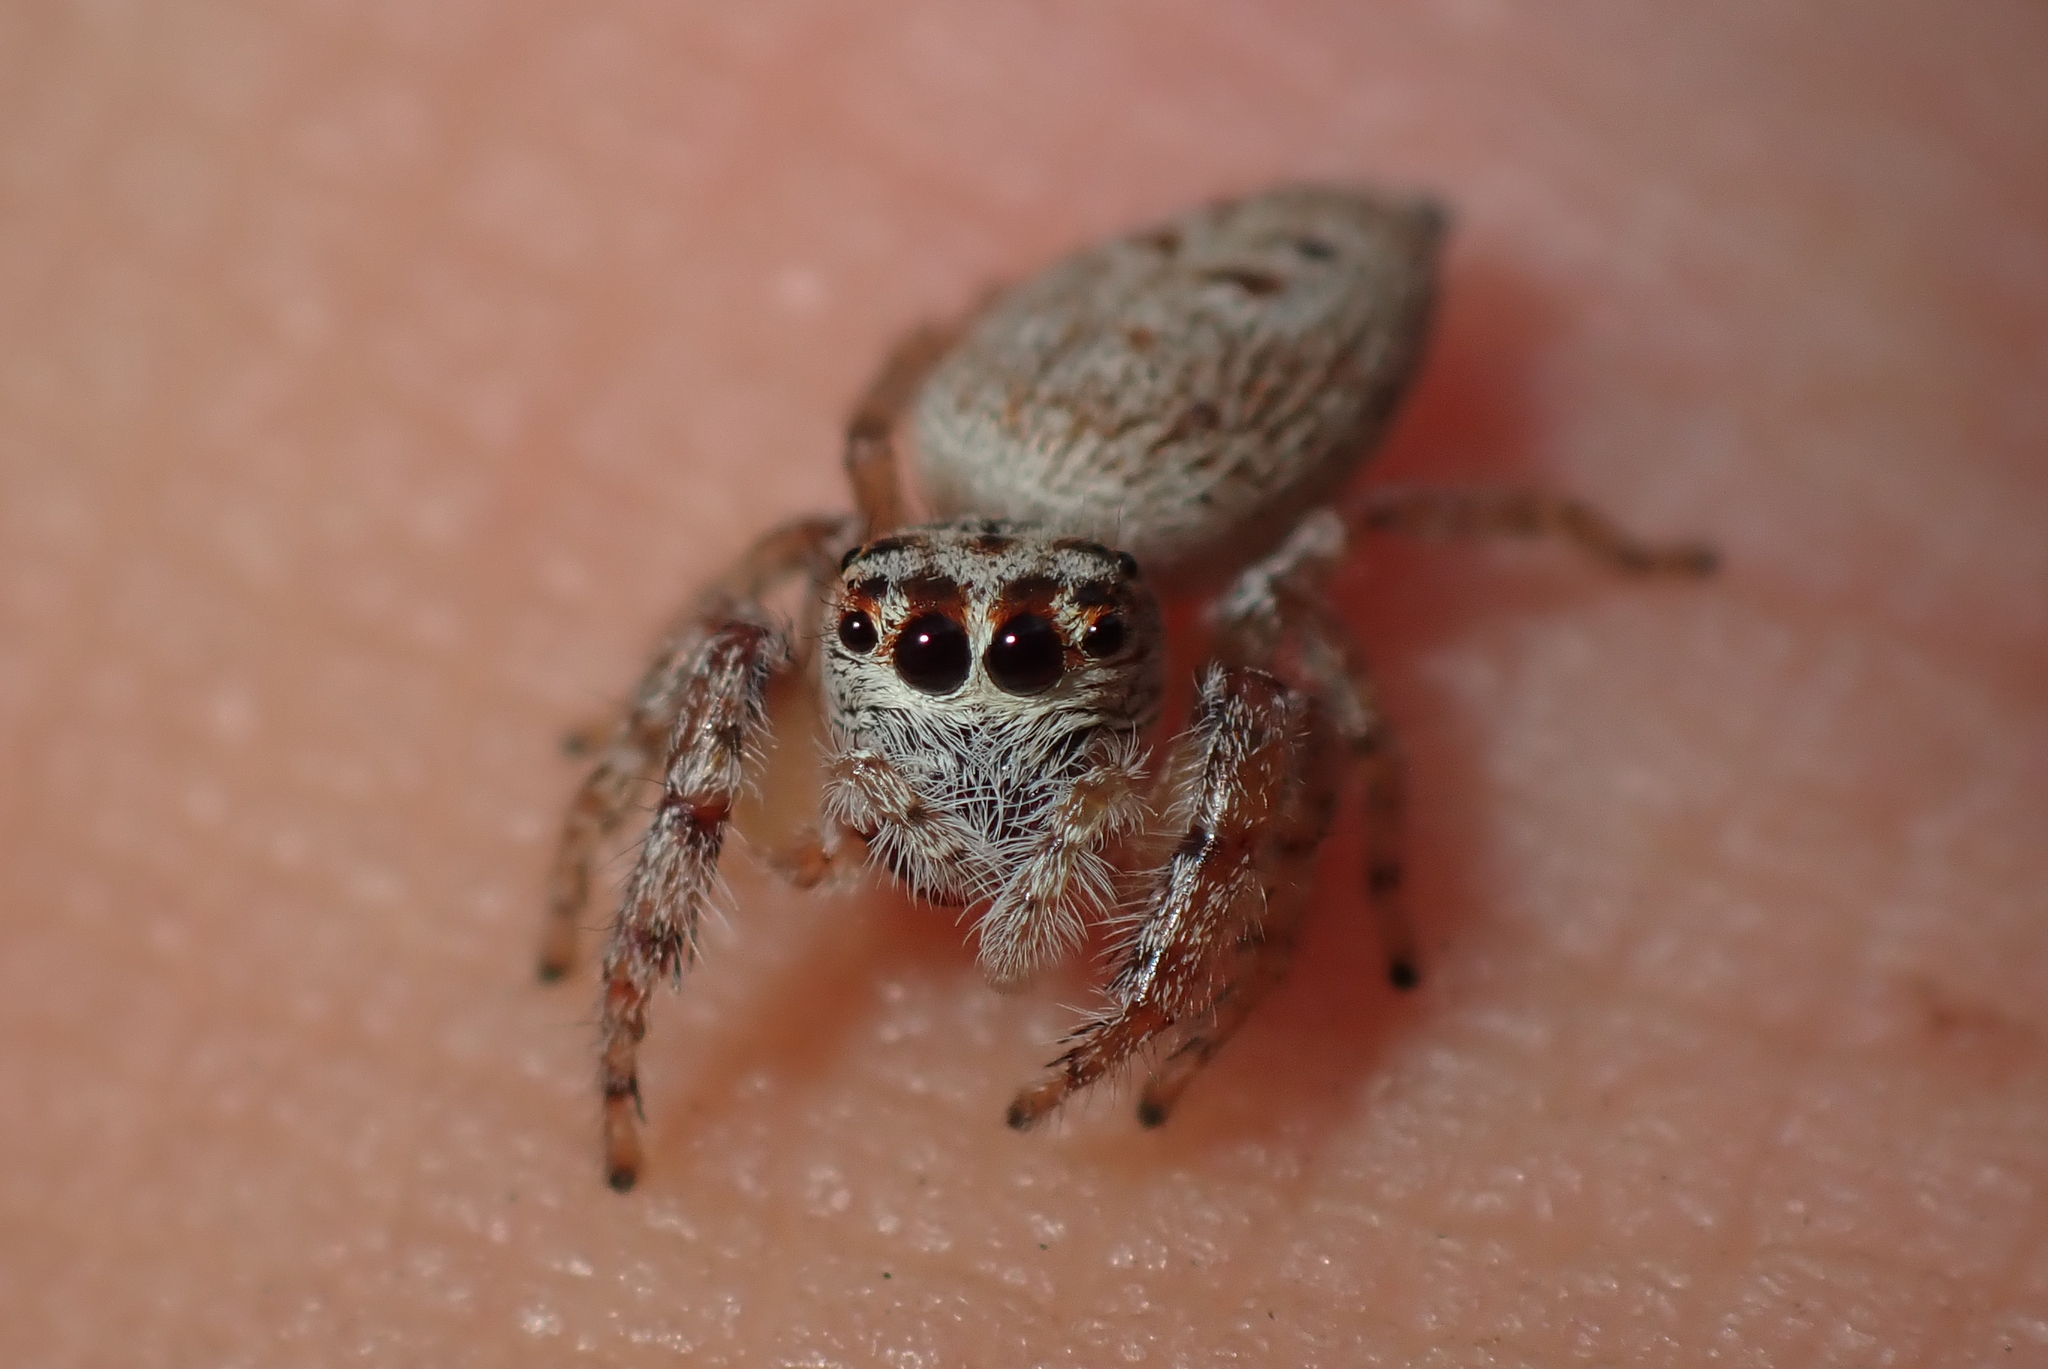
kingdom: Animalia
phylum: Arthropoda
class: Arachnida
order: Araneae
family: Salticidae
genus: Opisthoncus
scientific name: Opisthoncus polyphemus
